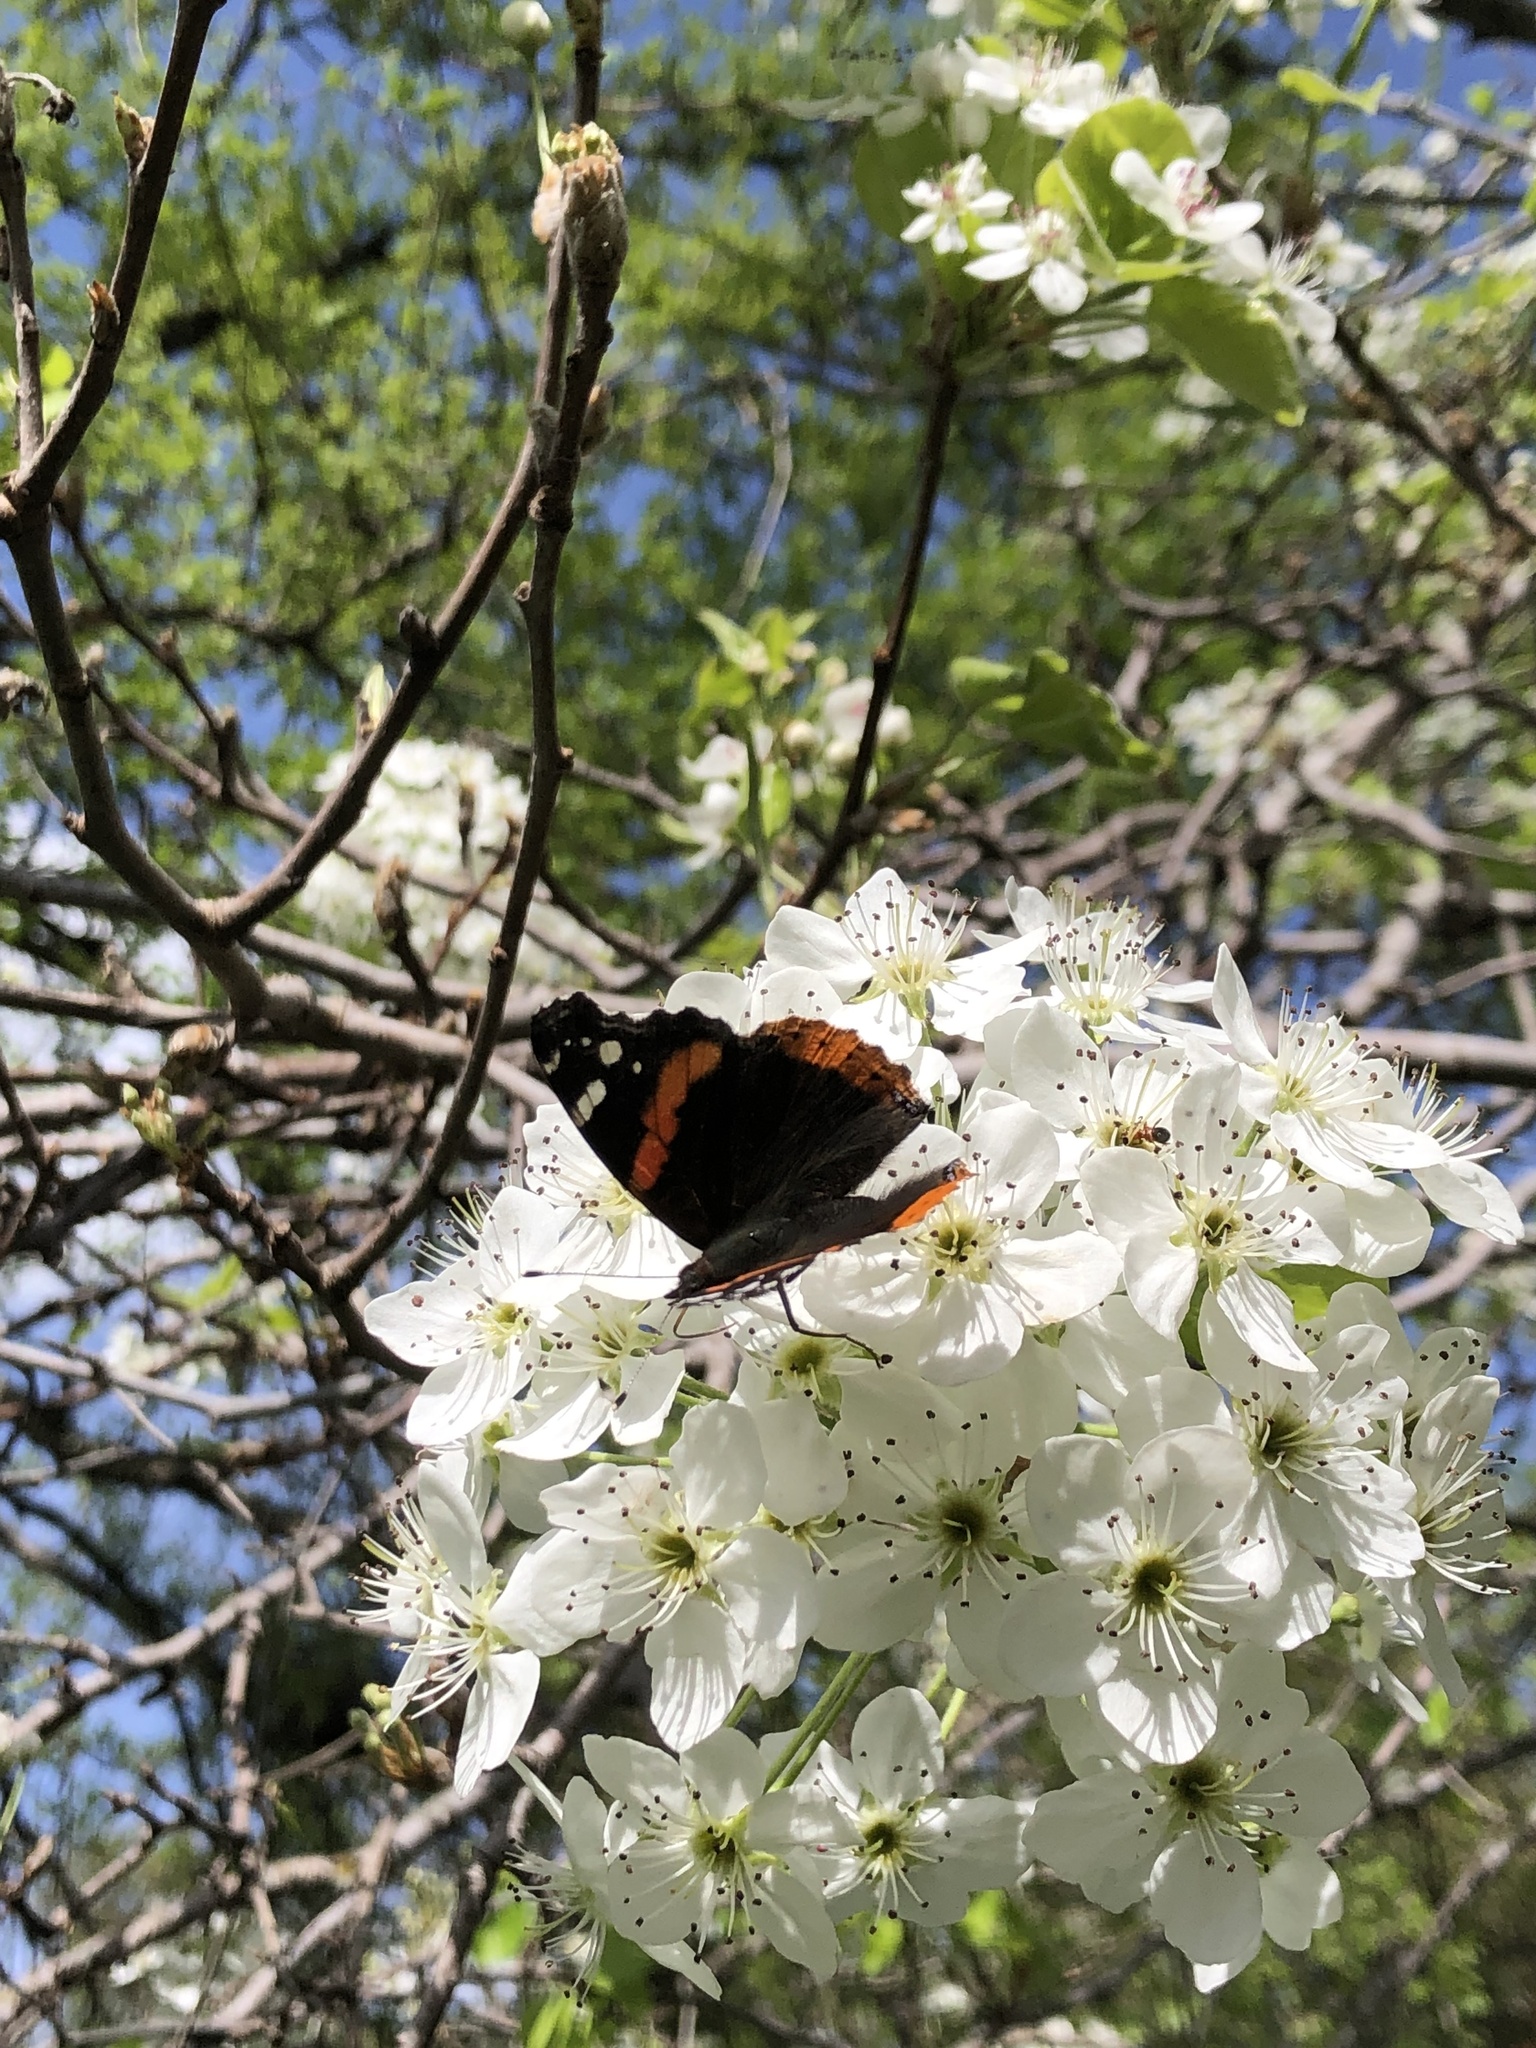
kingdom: Animalia
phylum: Arthropoda
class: Insecta
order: Lepidoptera
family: Nymphalidae
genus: Vanessa
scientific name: Vanessa atalanta
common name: Red admiral
